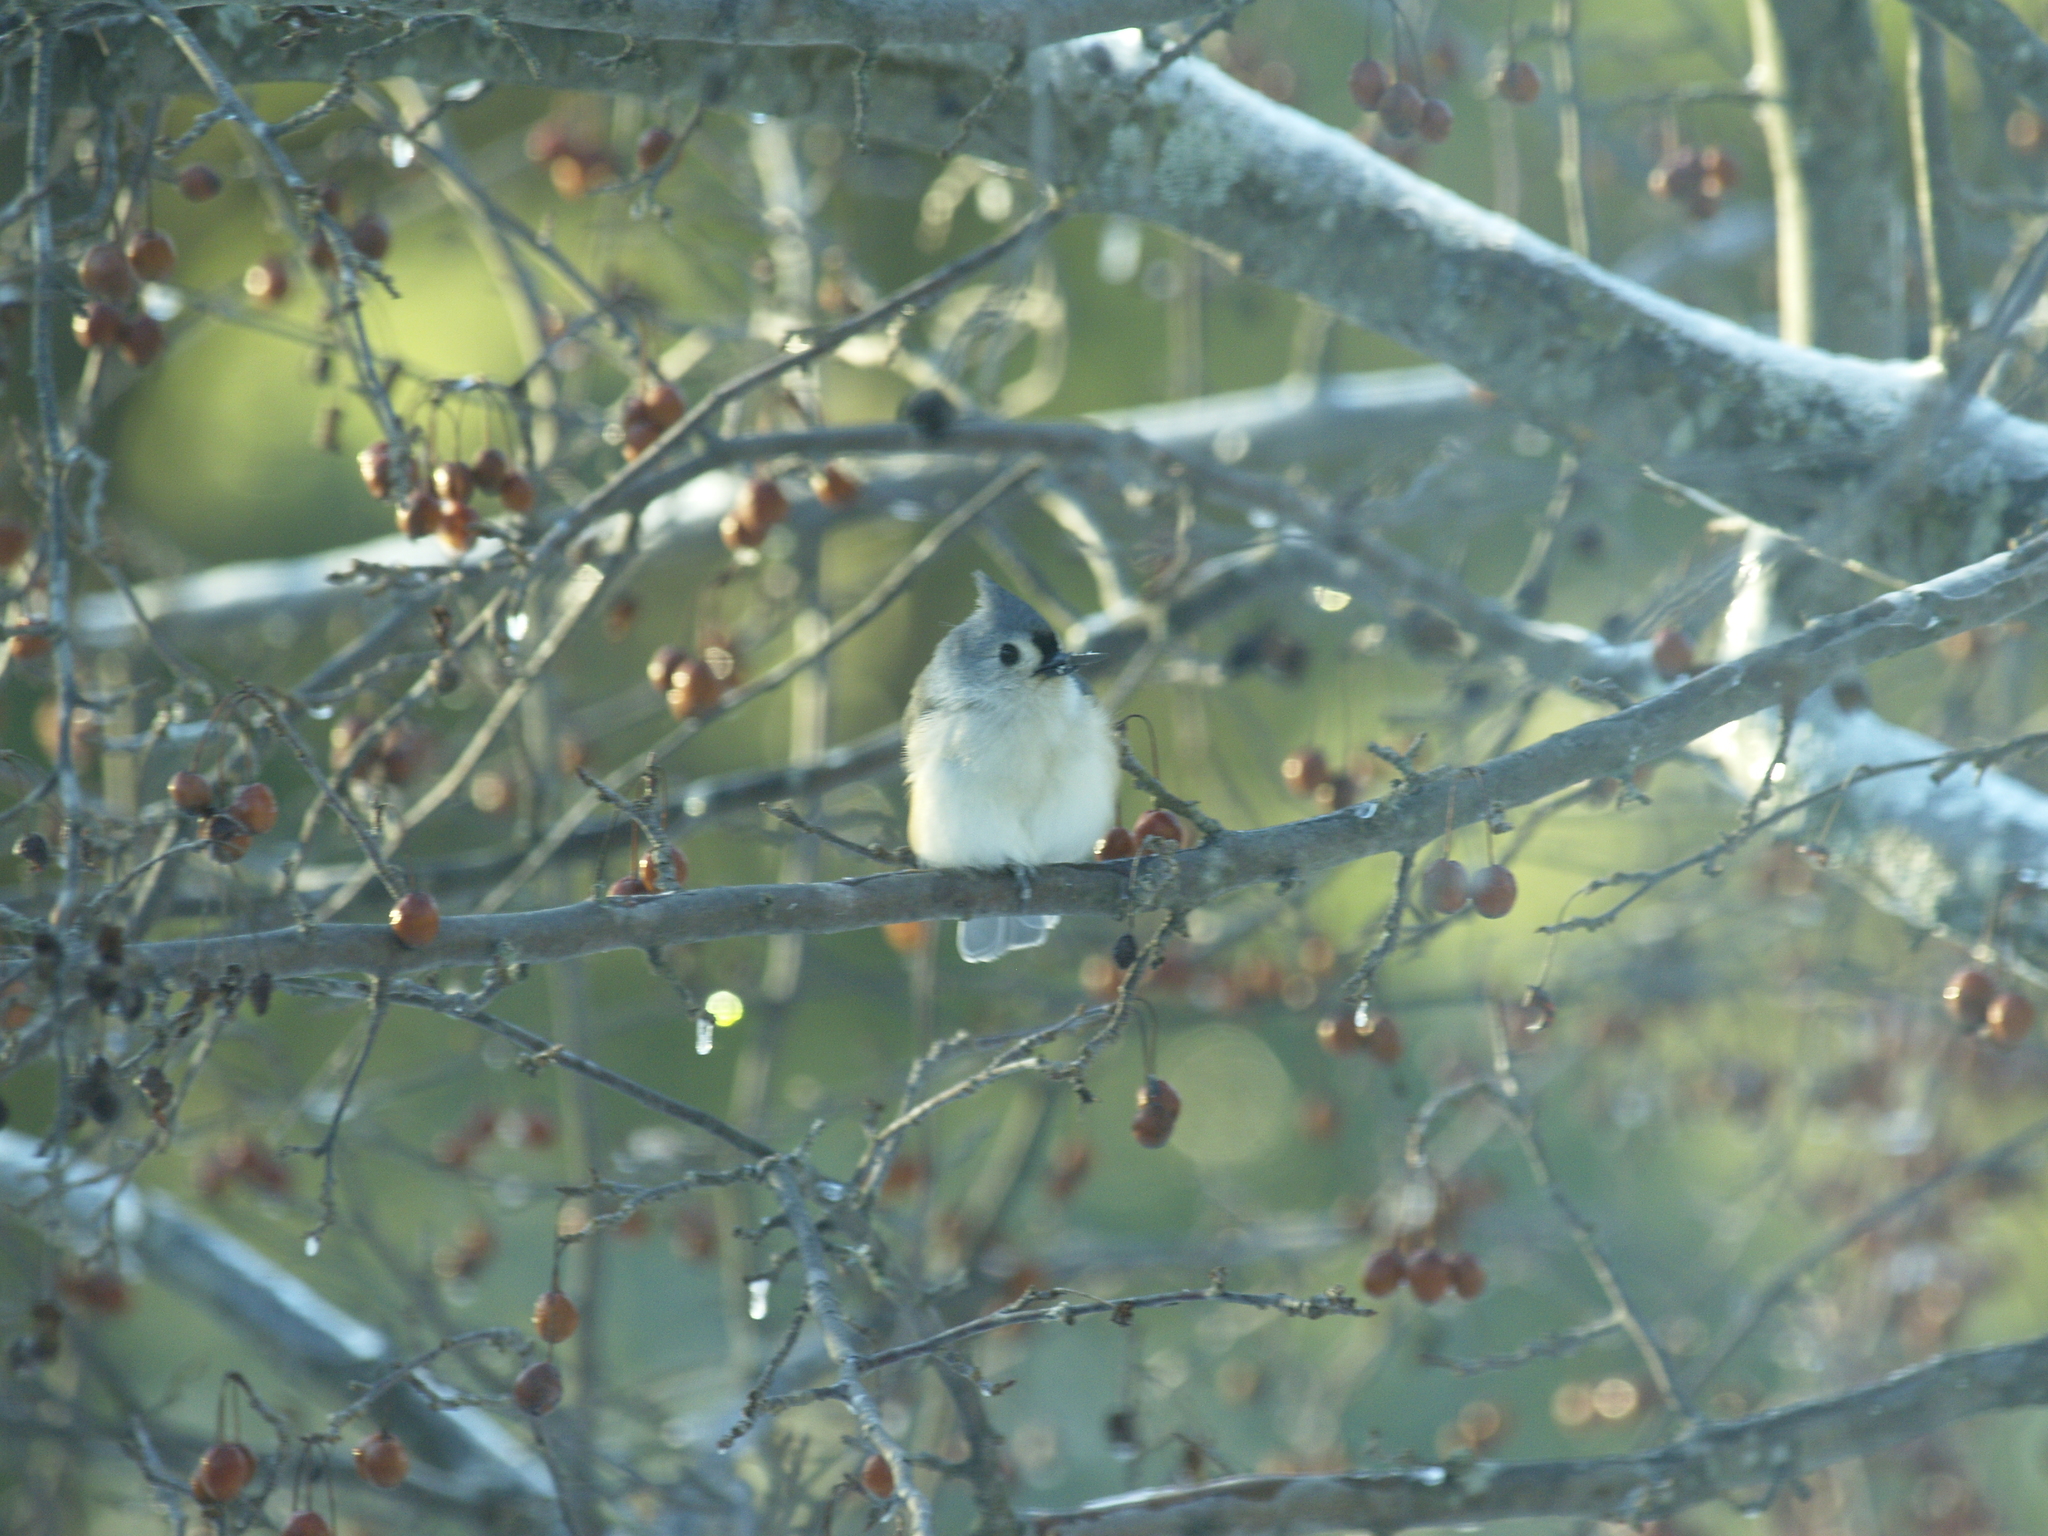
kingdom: Animalia
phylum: Chordata
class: Aves
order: Passeriformes
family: Paridae
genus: Baeolophus
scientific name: Baeolophus bicolor
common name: Tufted titmouse
